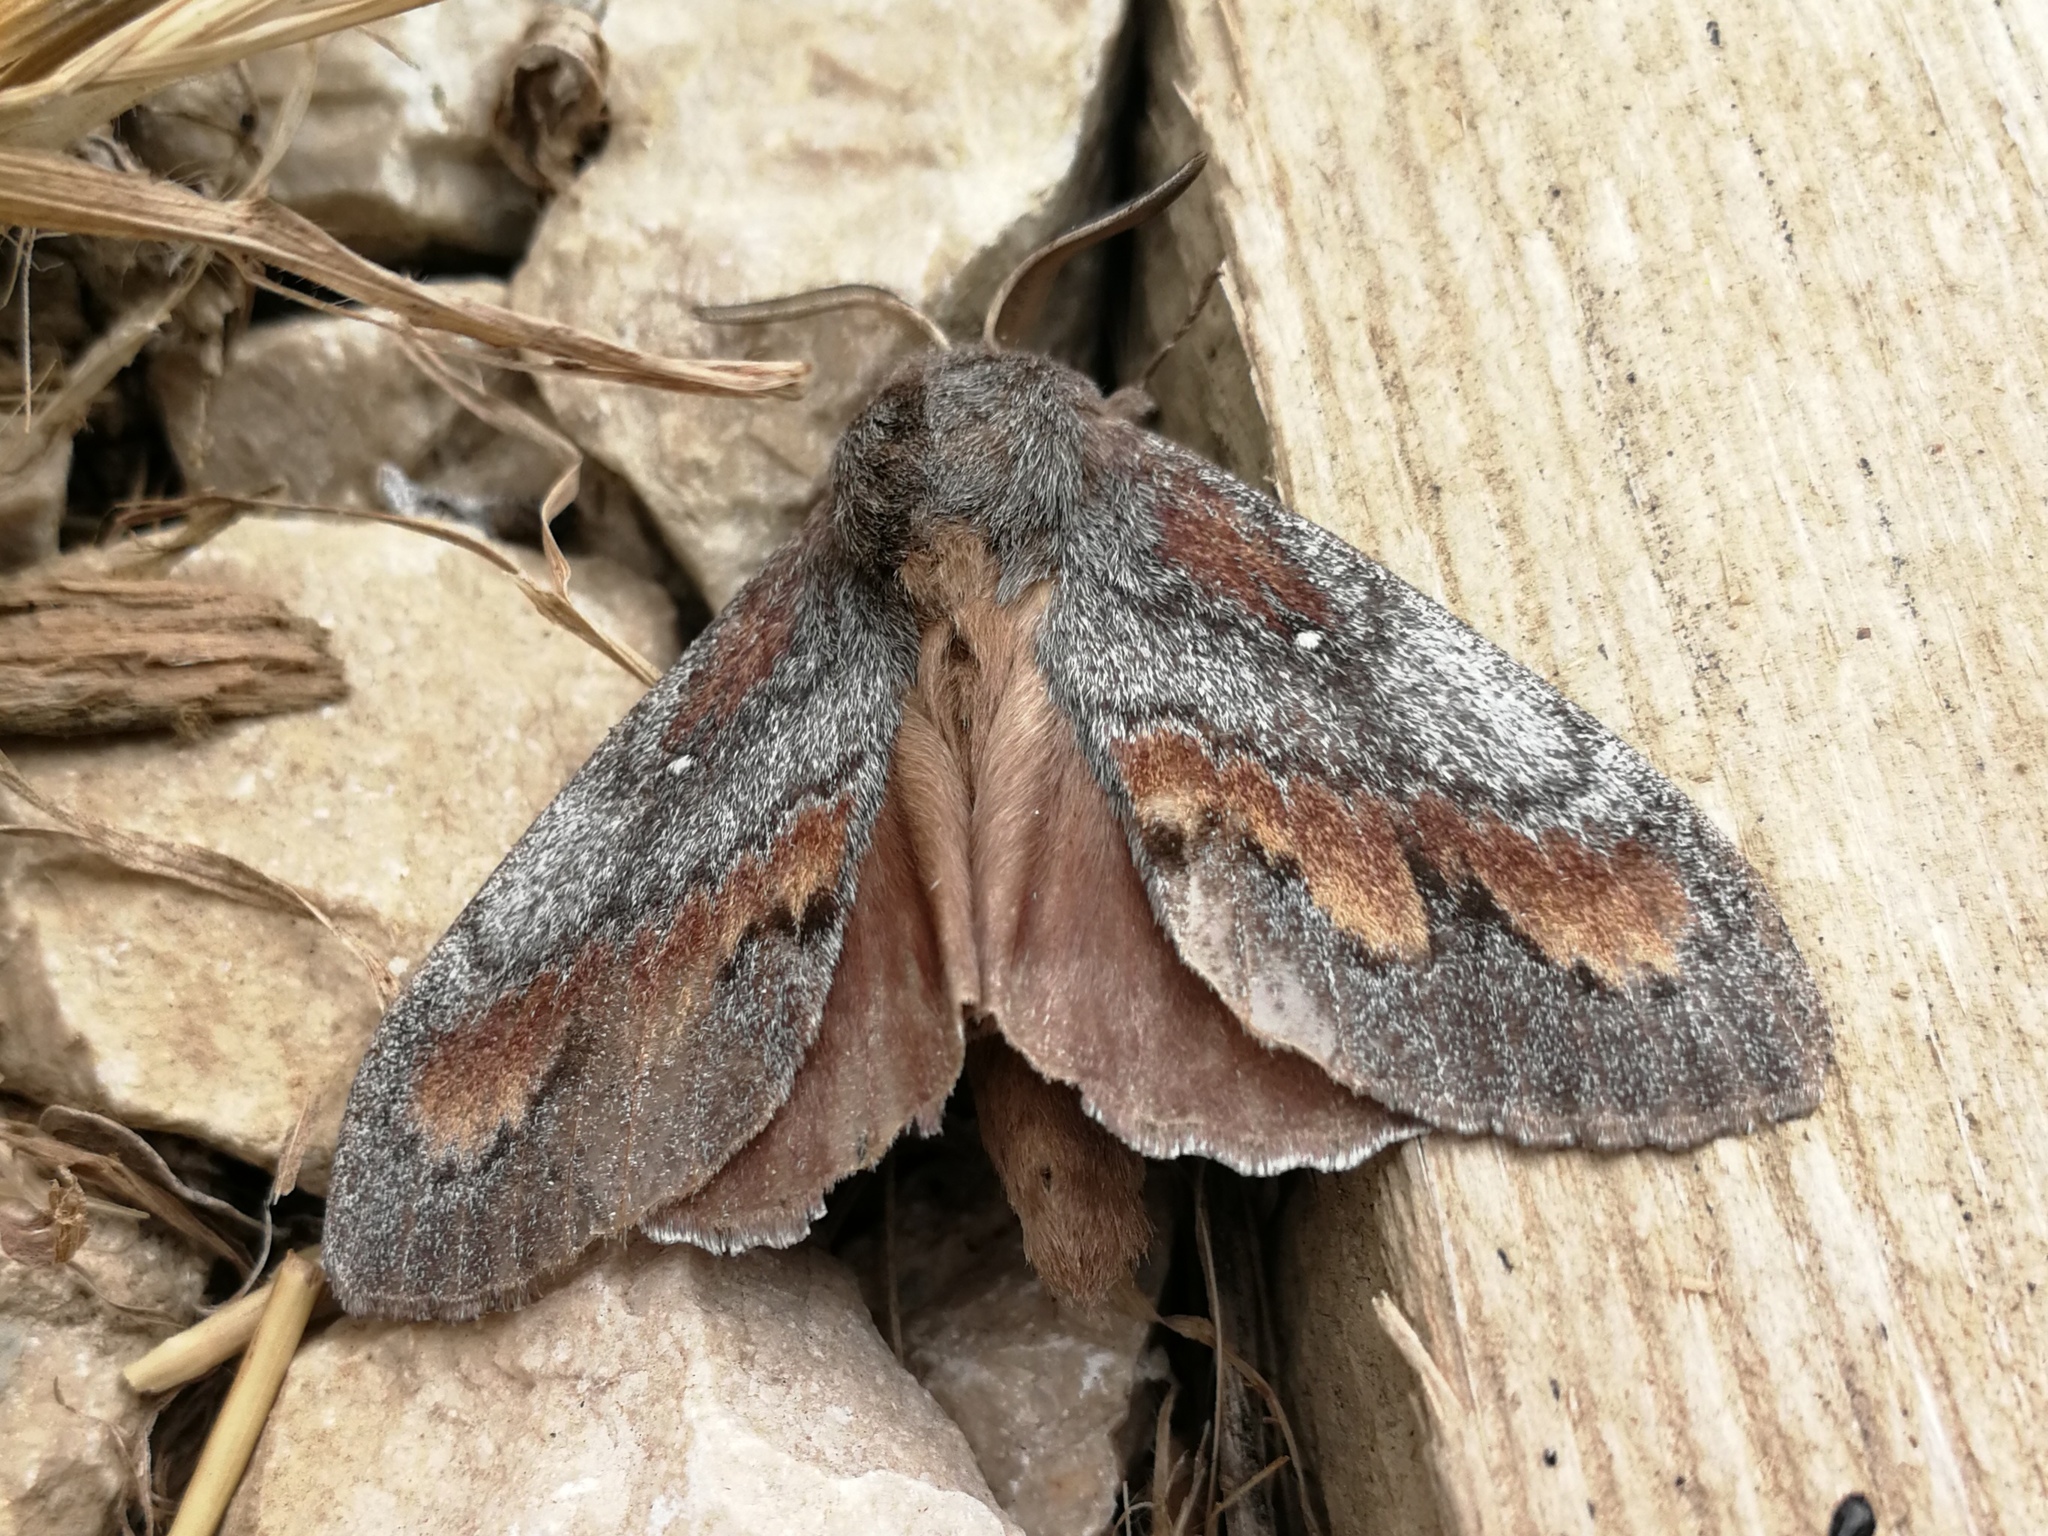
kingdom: Animalia
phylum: Arthropoda
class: Insecta
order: Lepidoptera
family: Lasiocampidae
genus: Dendrolimus
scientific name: Dendrolimus pini
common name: Pine-tree lappet
